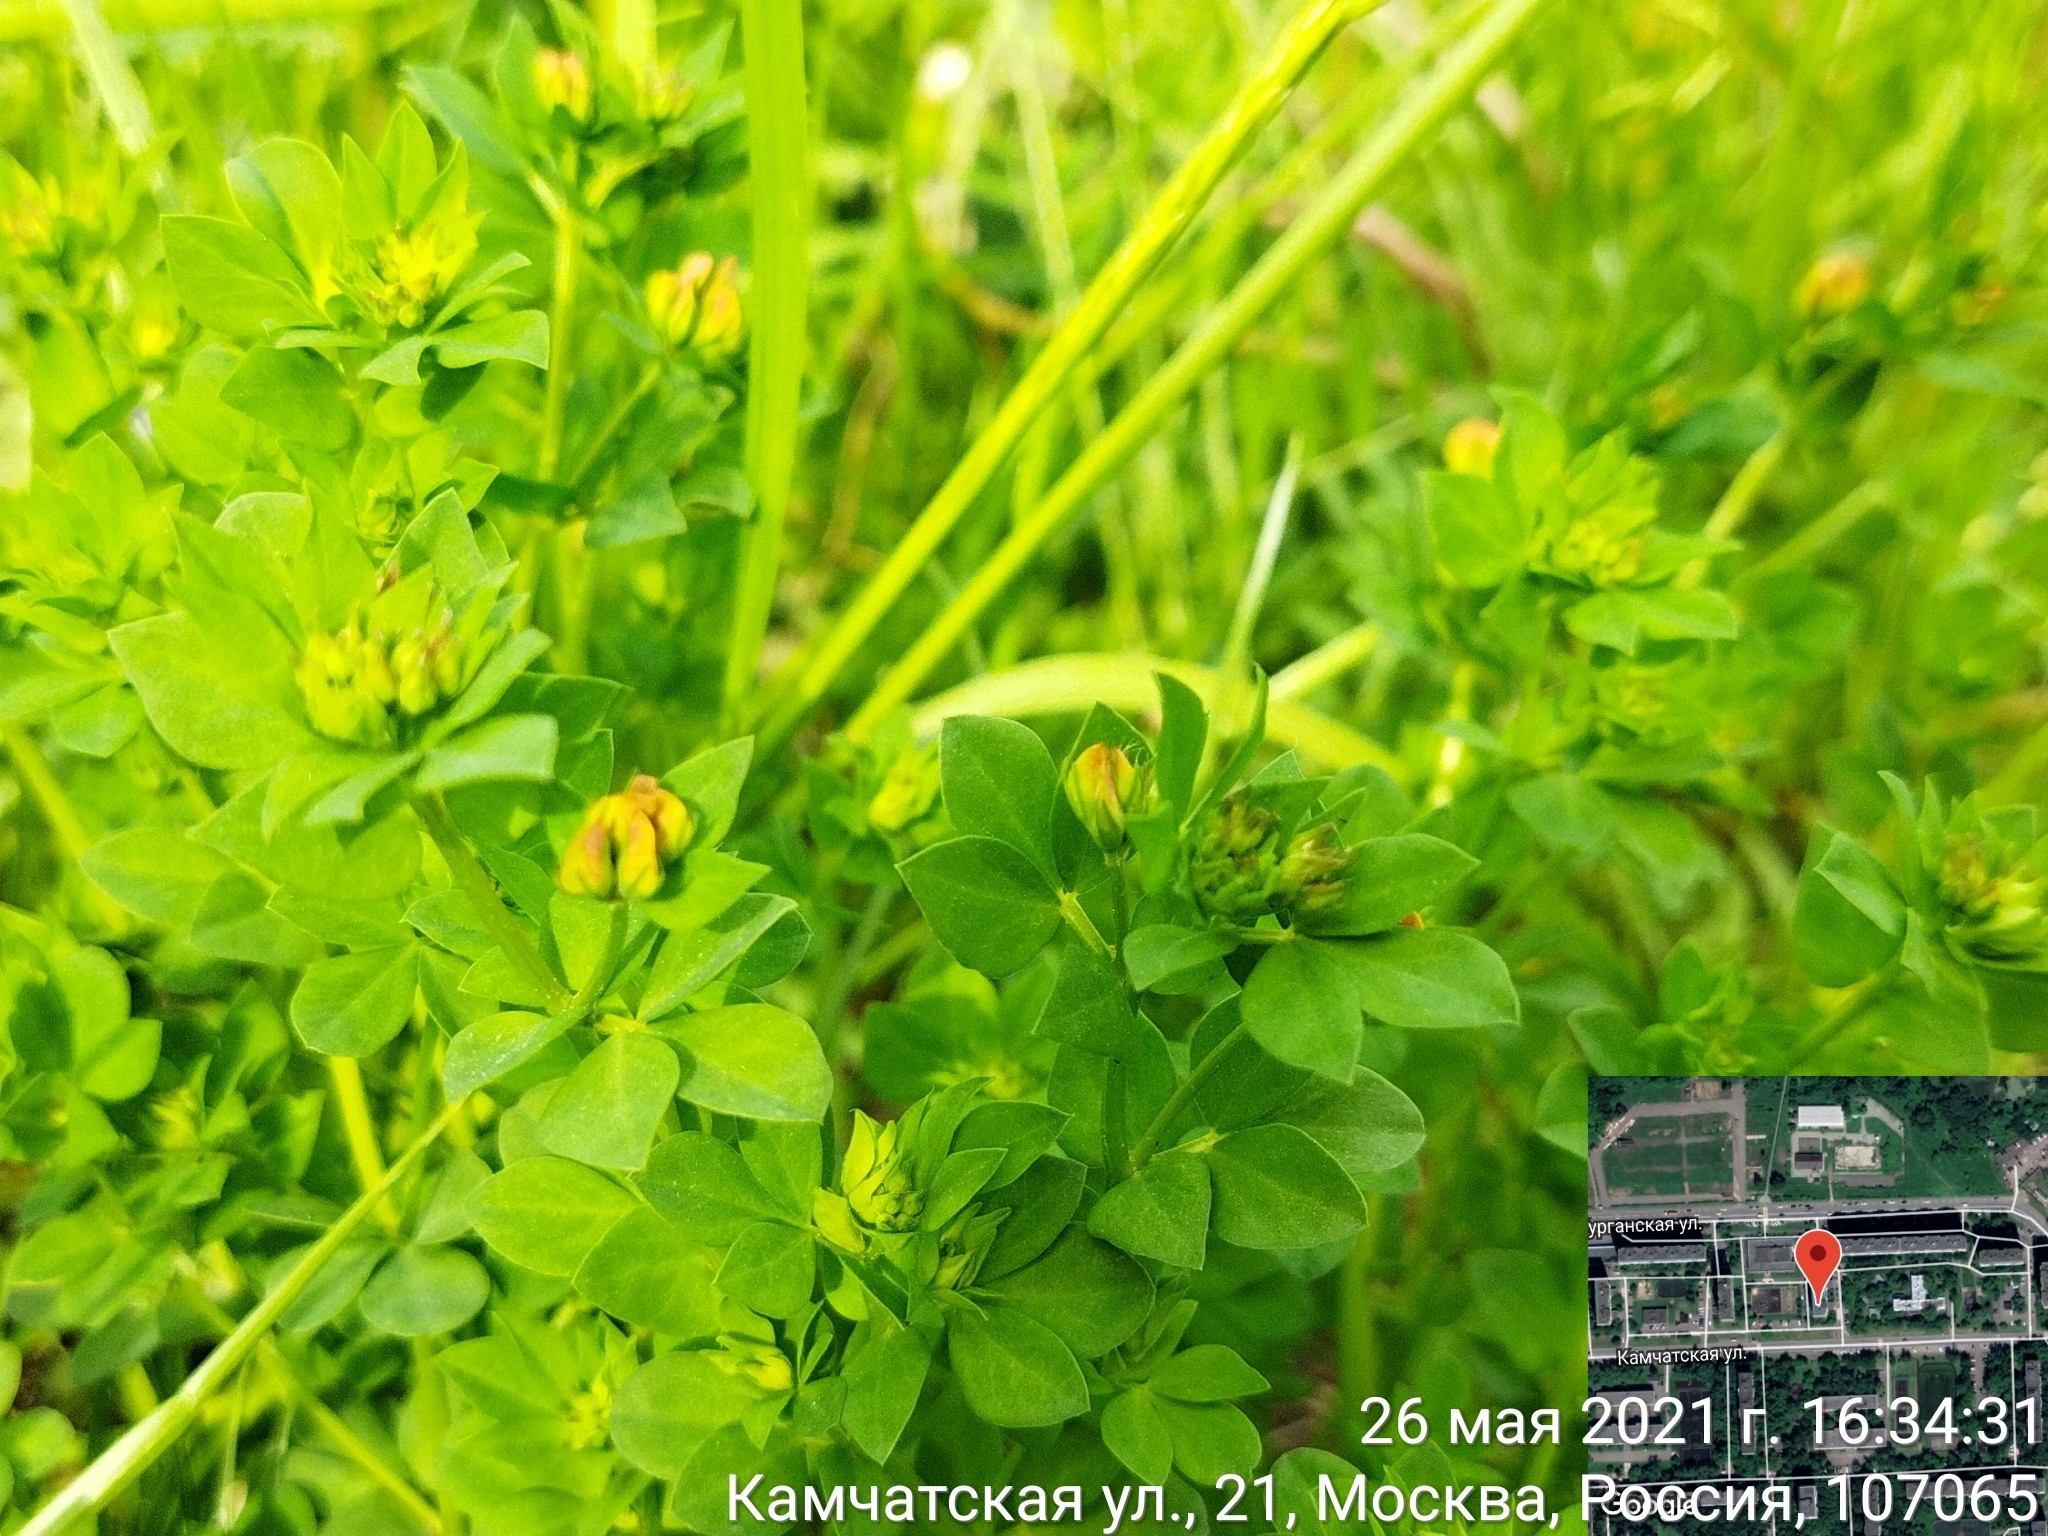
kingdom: Plantae
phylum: Tracheophyta
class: Magnoliopsida
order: Fabales
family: Fabaceae
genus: Lotus
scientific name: Lotus corniculatus
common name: Common bird's-foot-trefoil
